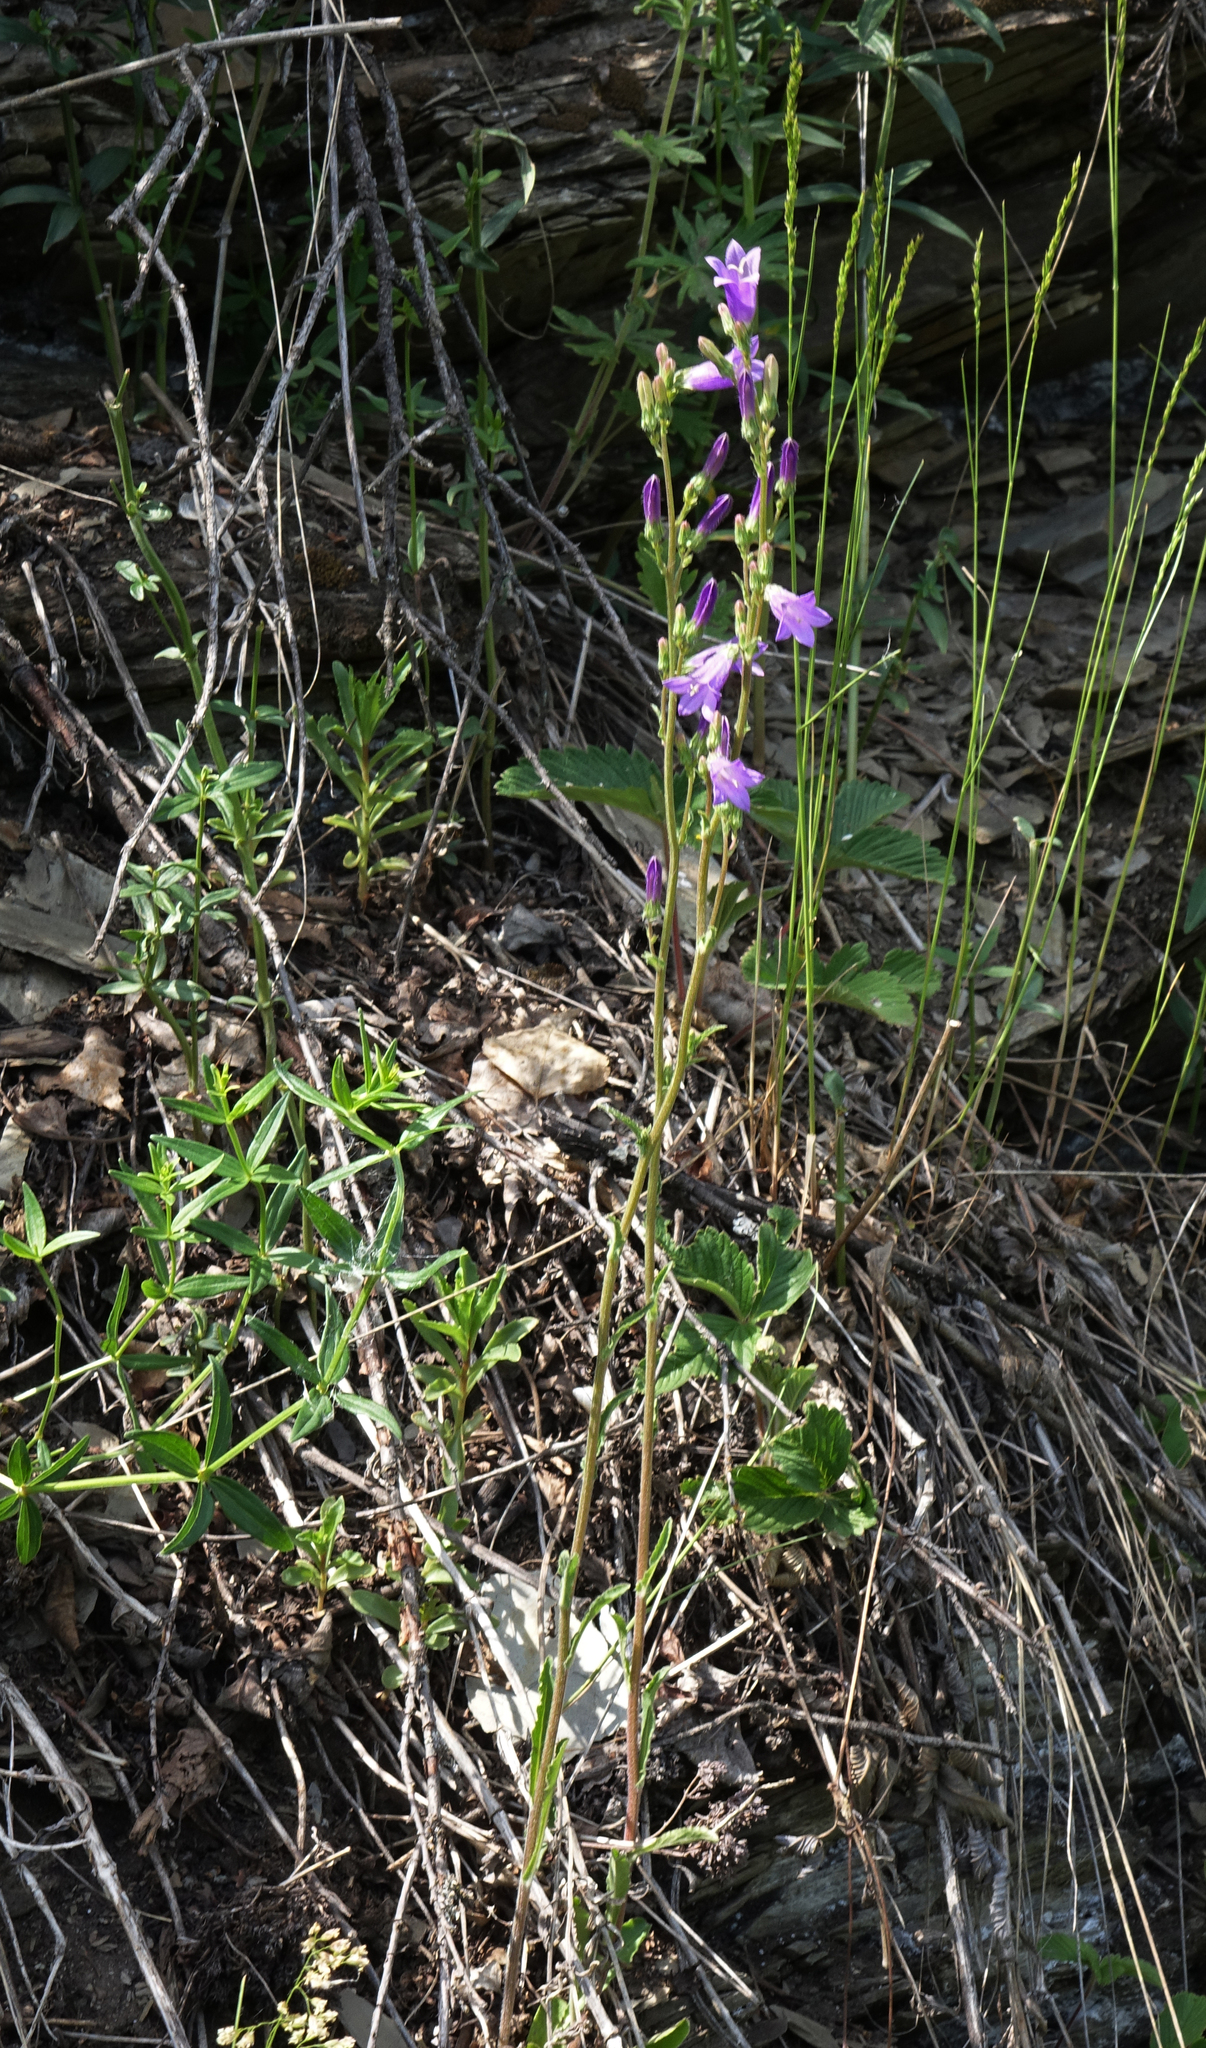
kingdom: Plantae
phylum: Tracheophyta
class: Magnoliopsida
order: Asterales
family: Campanulaceae
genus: Campanula
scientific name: Campanula sibirica
